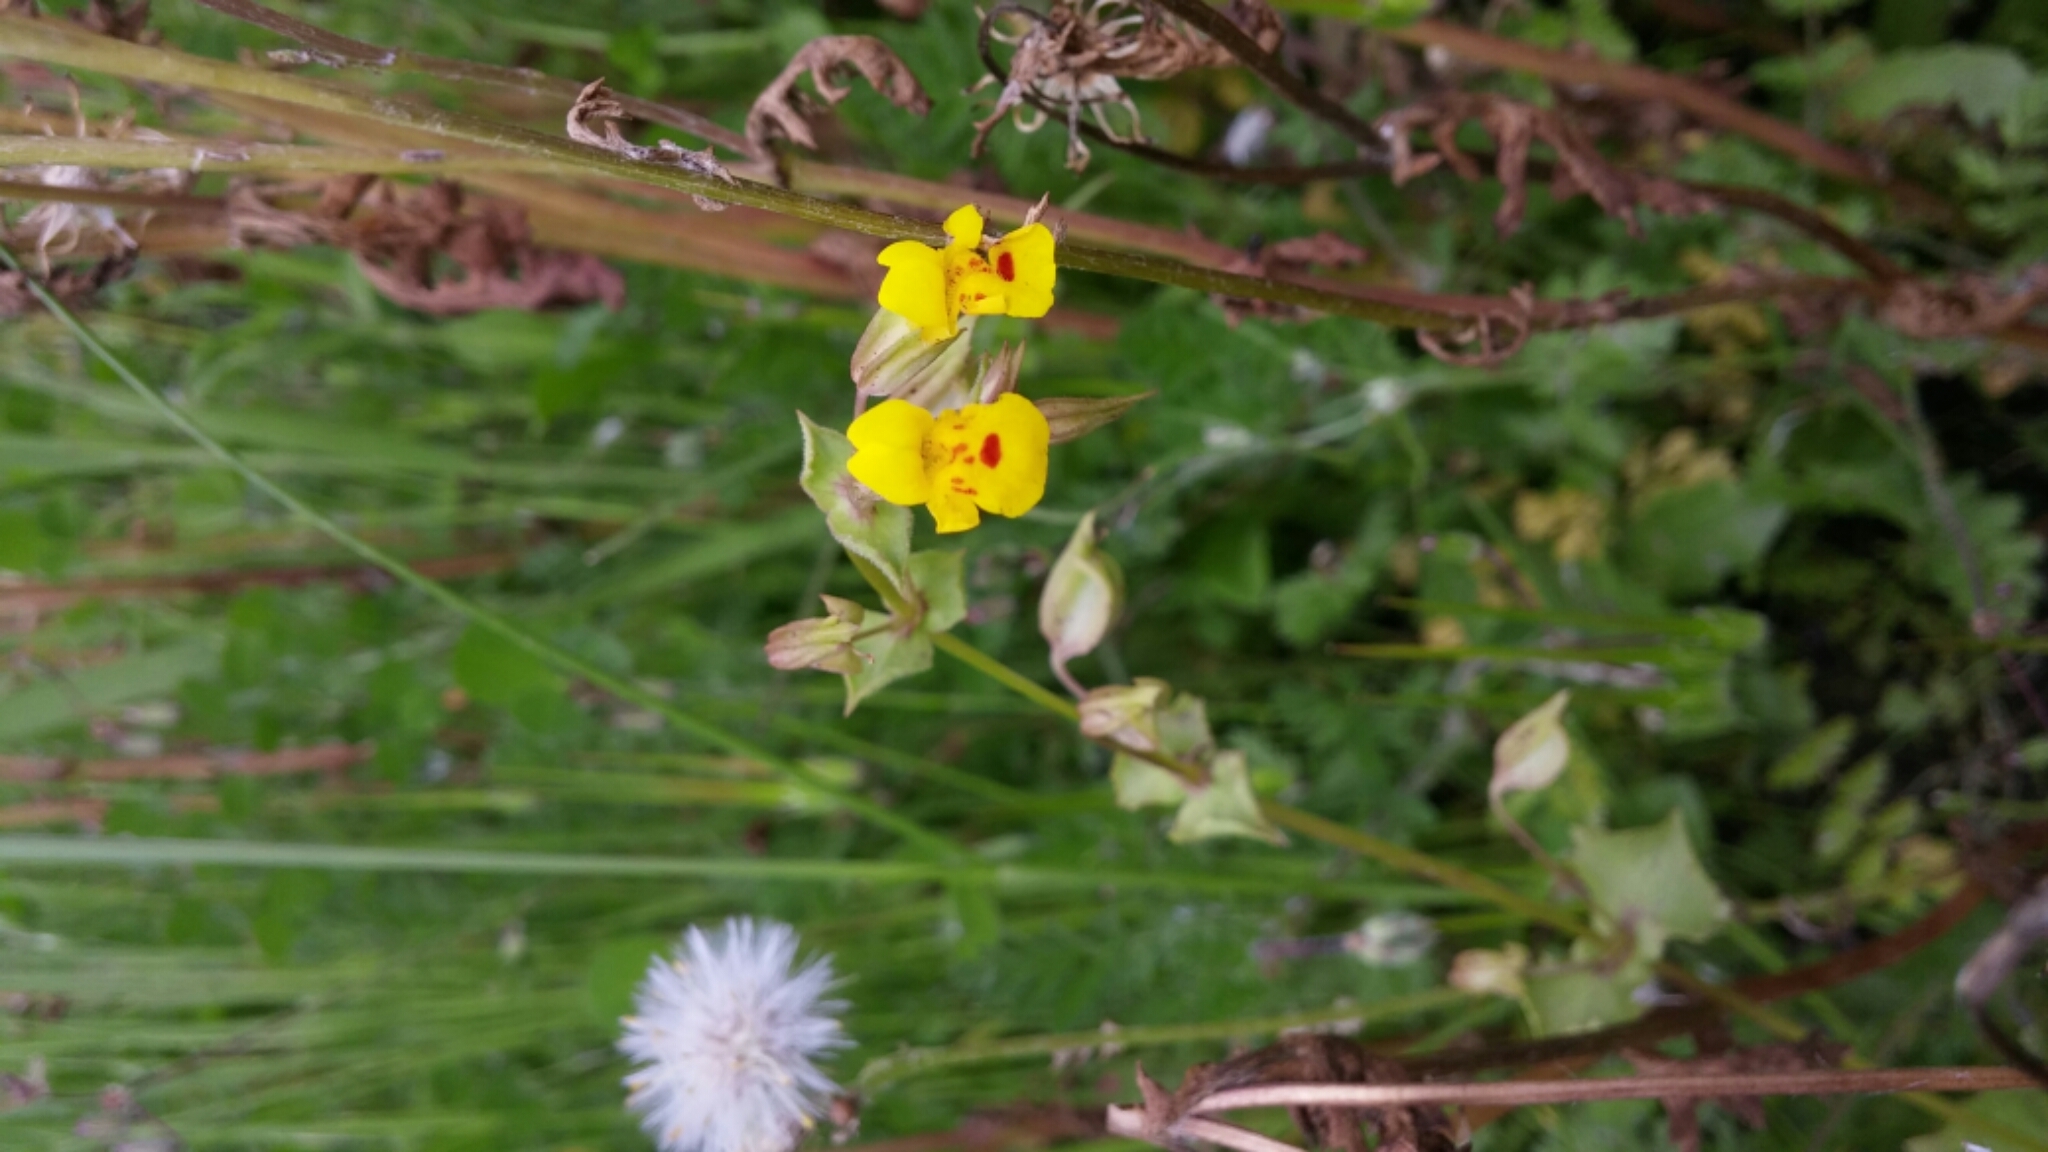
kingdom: Plantae
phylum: Tracheophyta
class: Magnoliopsida
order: Lamiales
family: Phrymaceae
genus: Erythranthe
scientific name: Erythranthe nasuta
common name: Sooke monkeyflower
